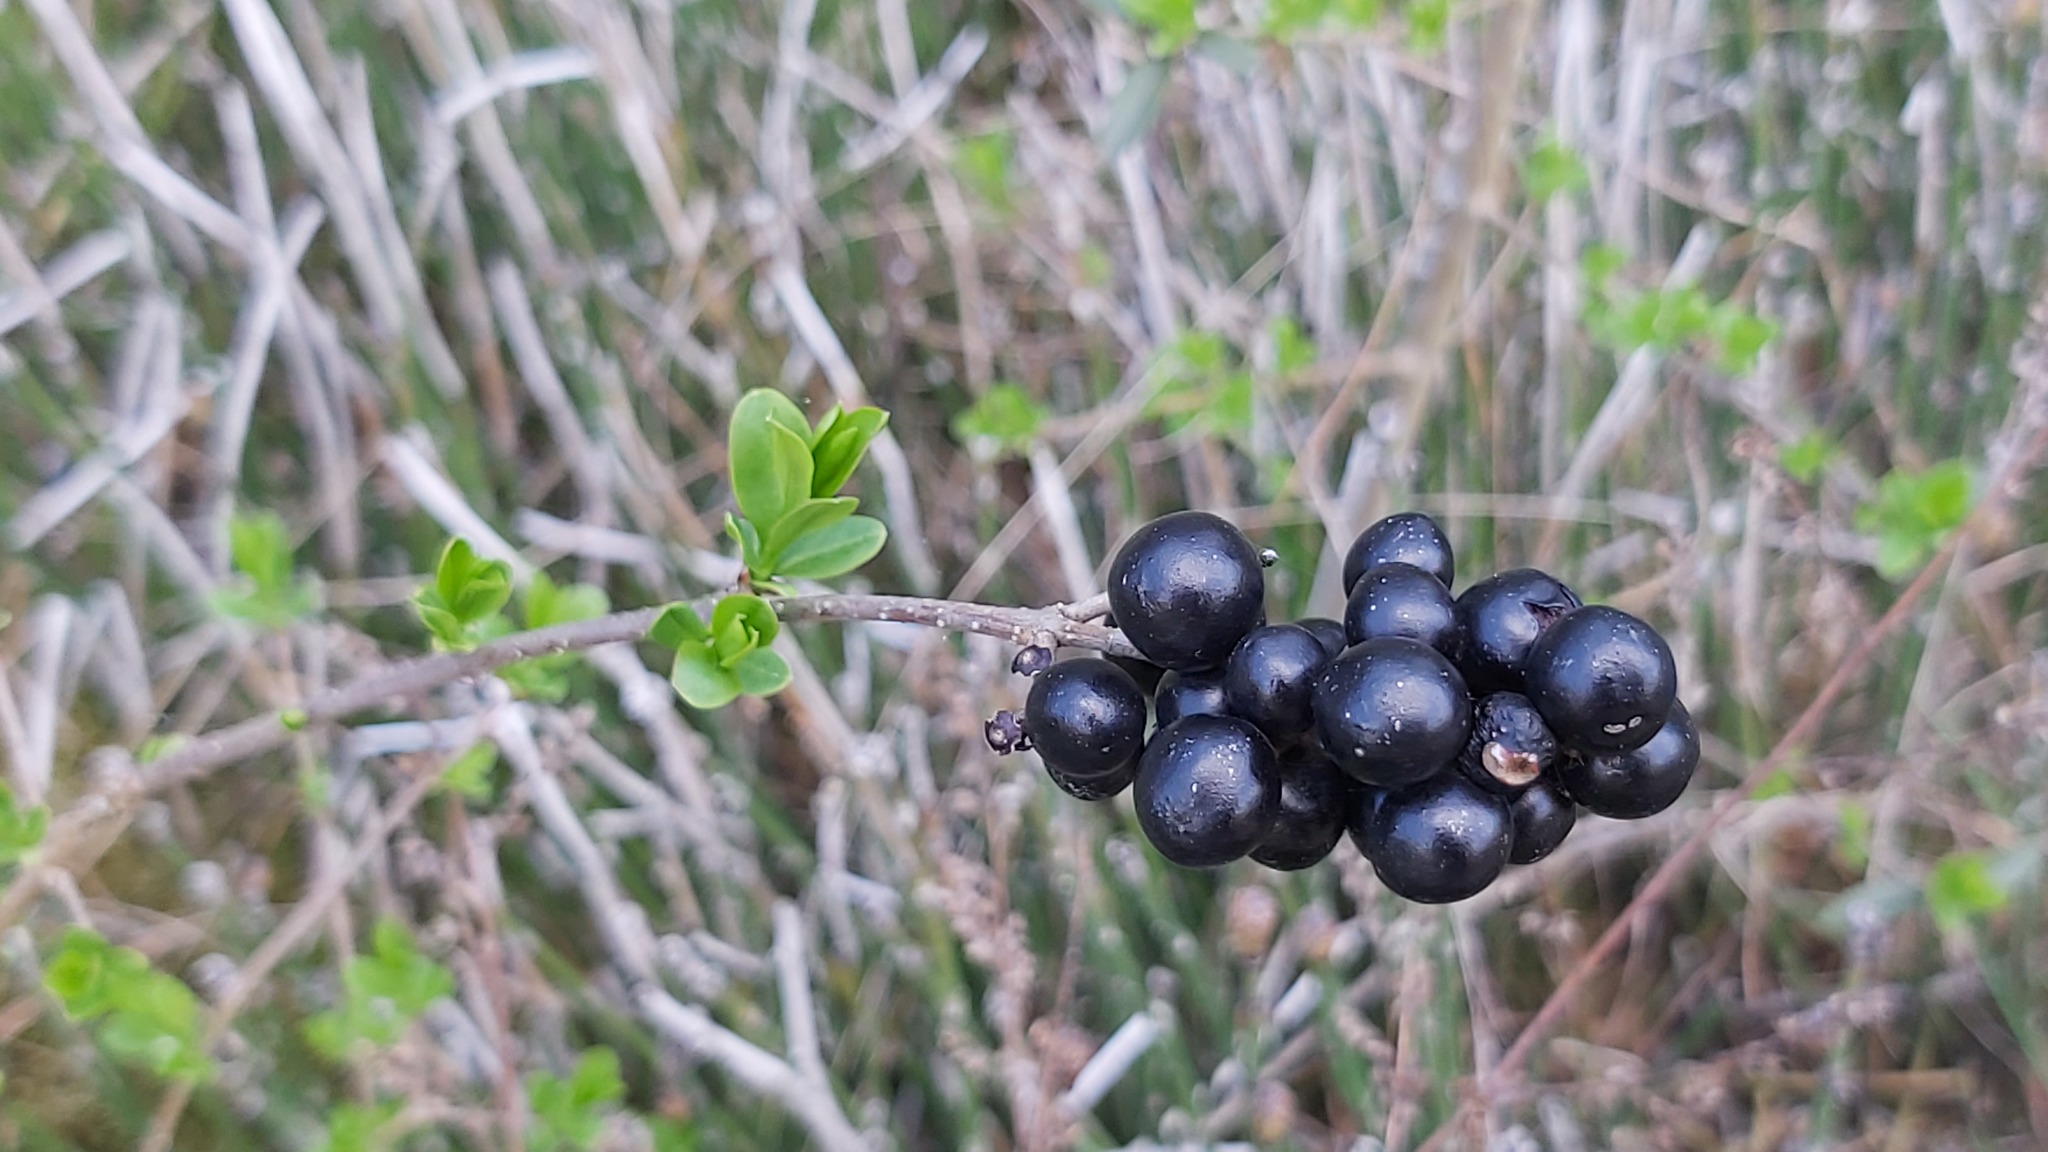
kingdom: Plantae
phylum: Tracheophyta
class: Magnoliopsida
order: Lamiales
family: Oleaceae
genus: Ligustrum
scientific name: Ligustrum vulgare
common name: Wild privet
